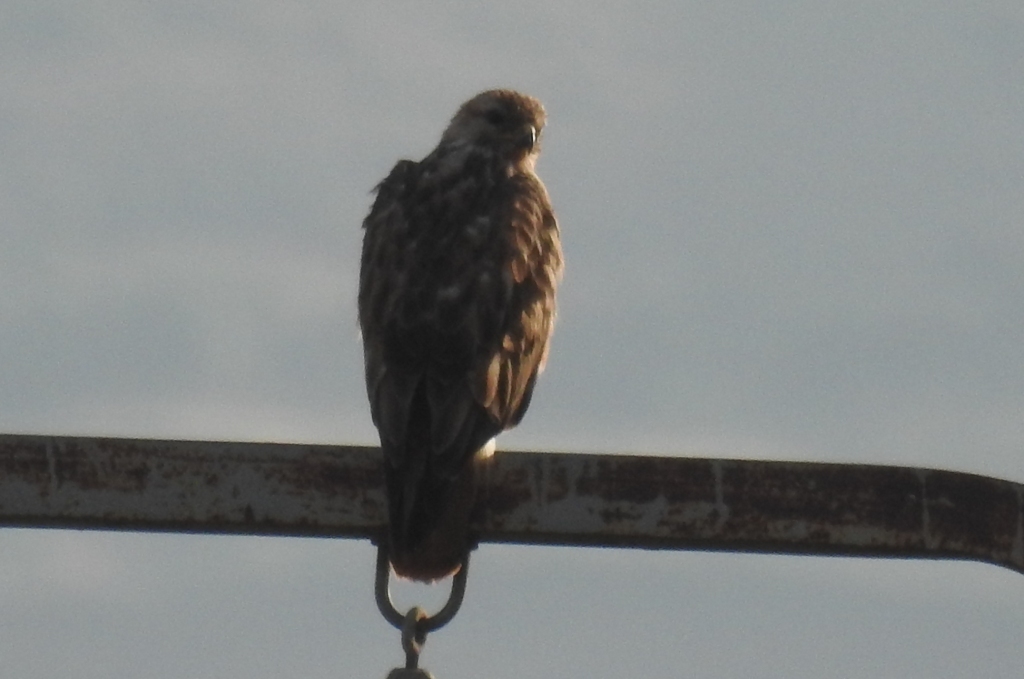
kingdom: Animalia
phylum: Chordata
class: Aves
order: Accipitriformes
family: Accipitridae
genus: Buteo
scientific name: Buteo rufinus
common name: Long-legged buzzard
